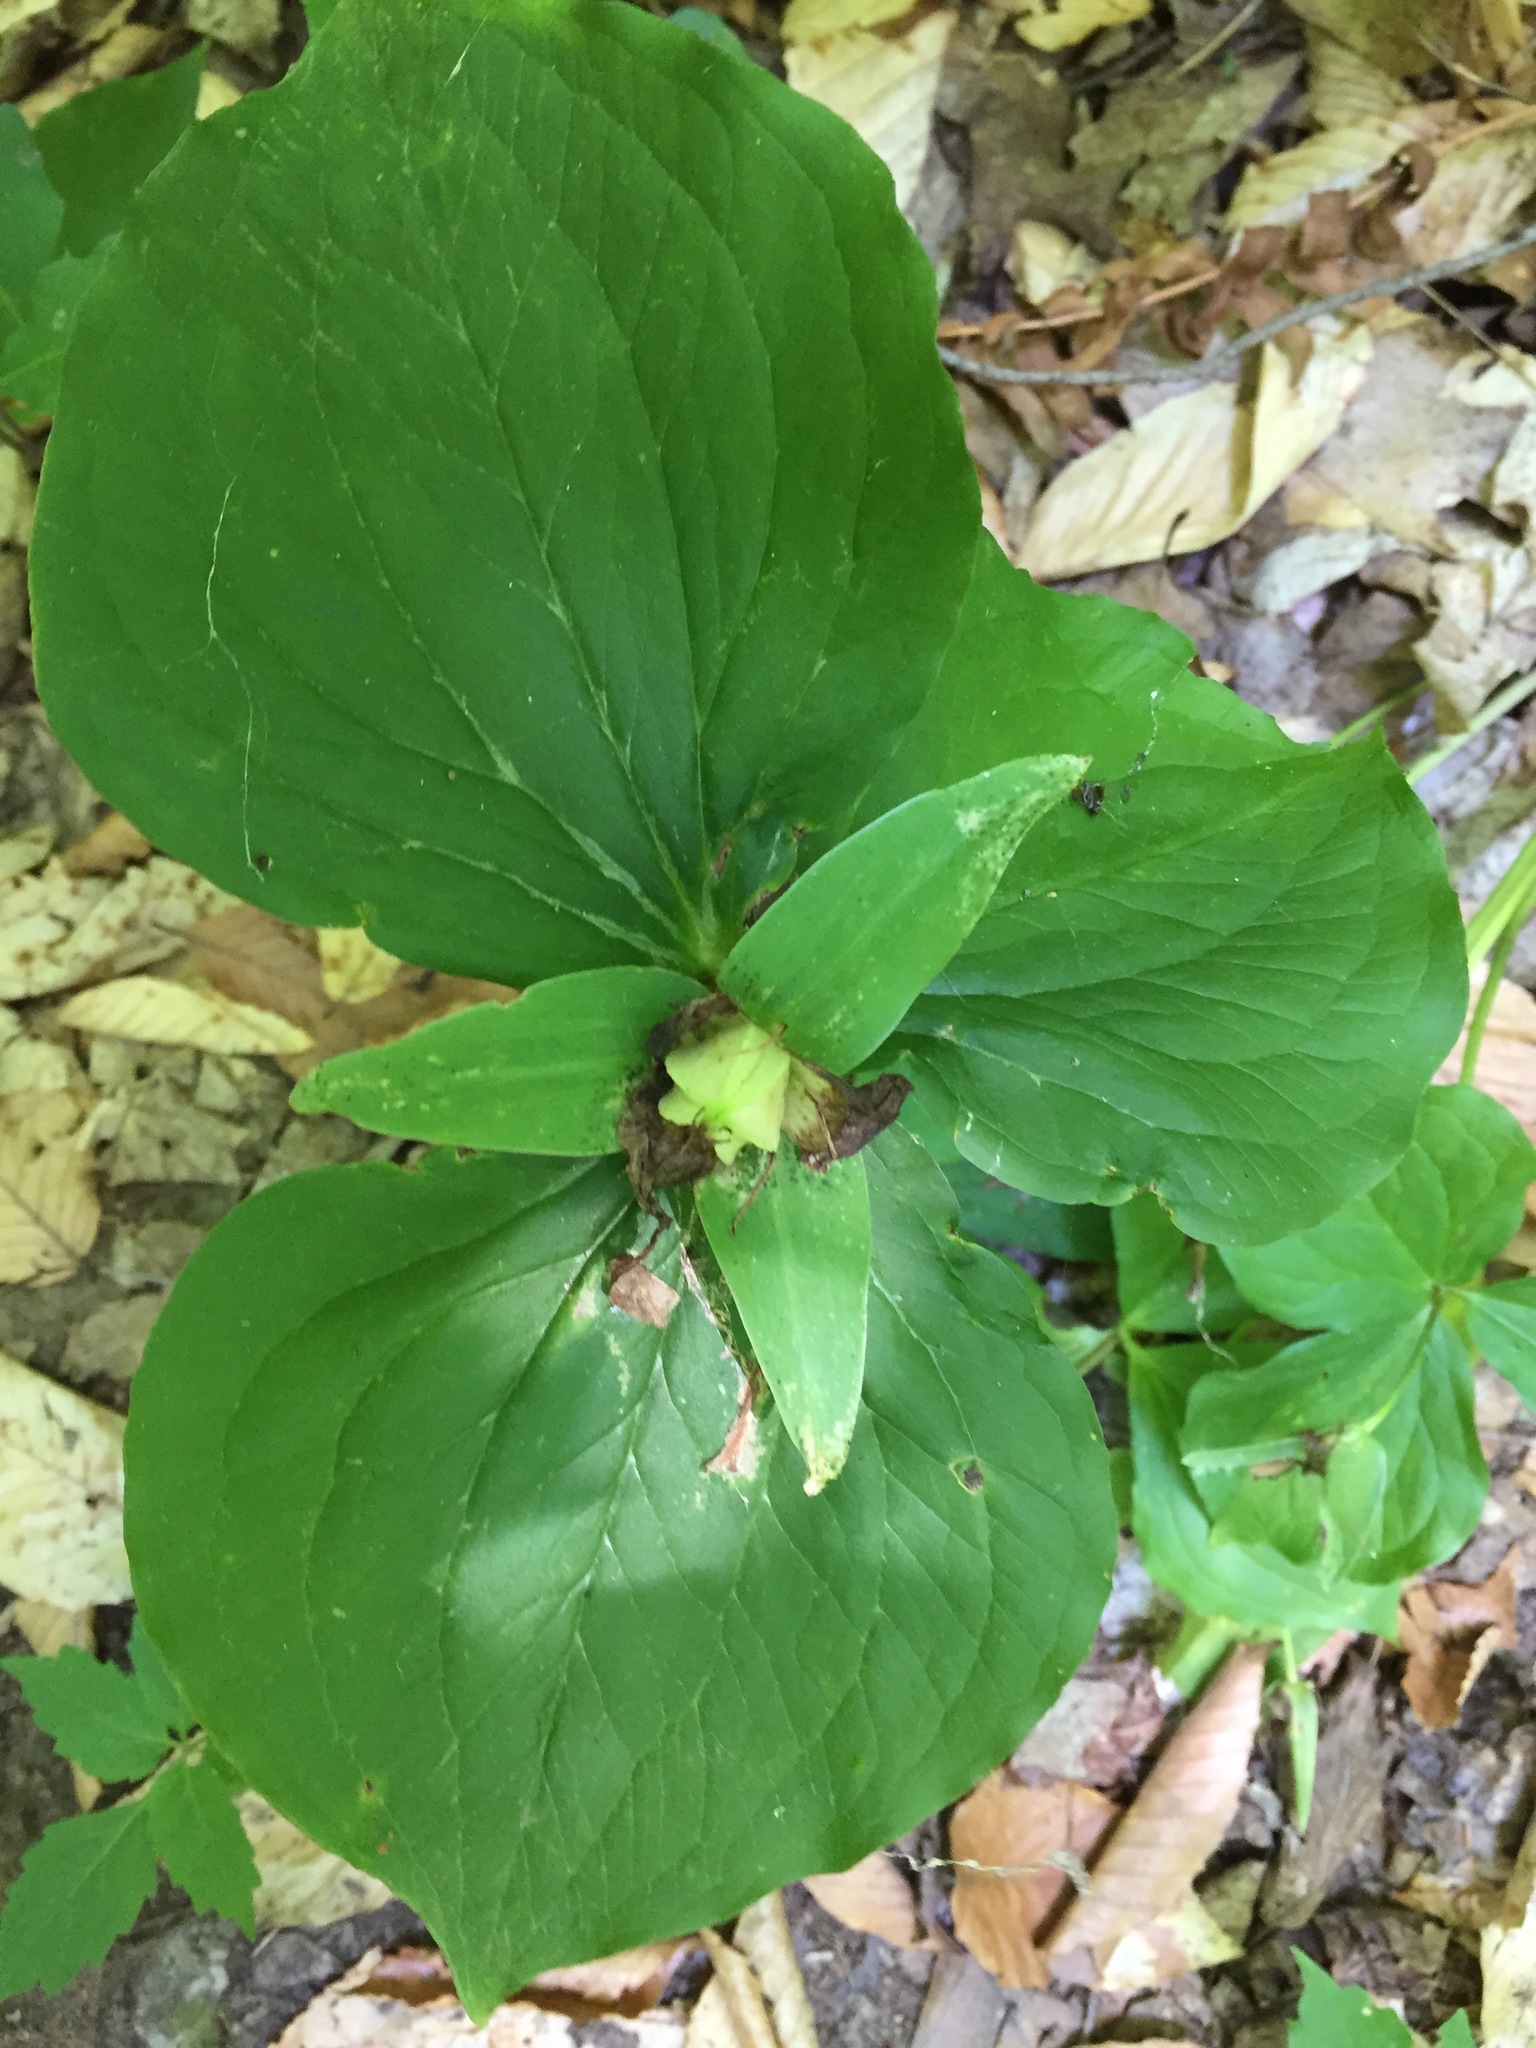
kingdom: Plantae
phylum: Tracheophyta
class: Liliopsida
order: Liliales
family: Melanthiaceae
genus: Trillium
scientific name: Trillium grandiflorum
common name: Great white trillium
